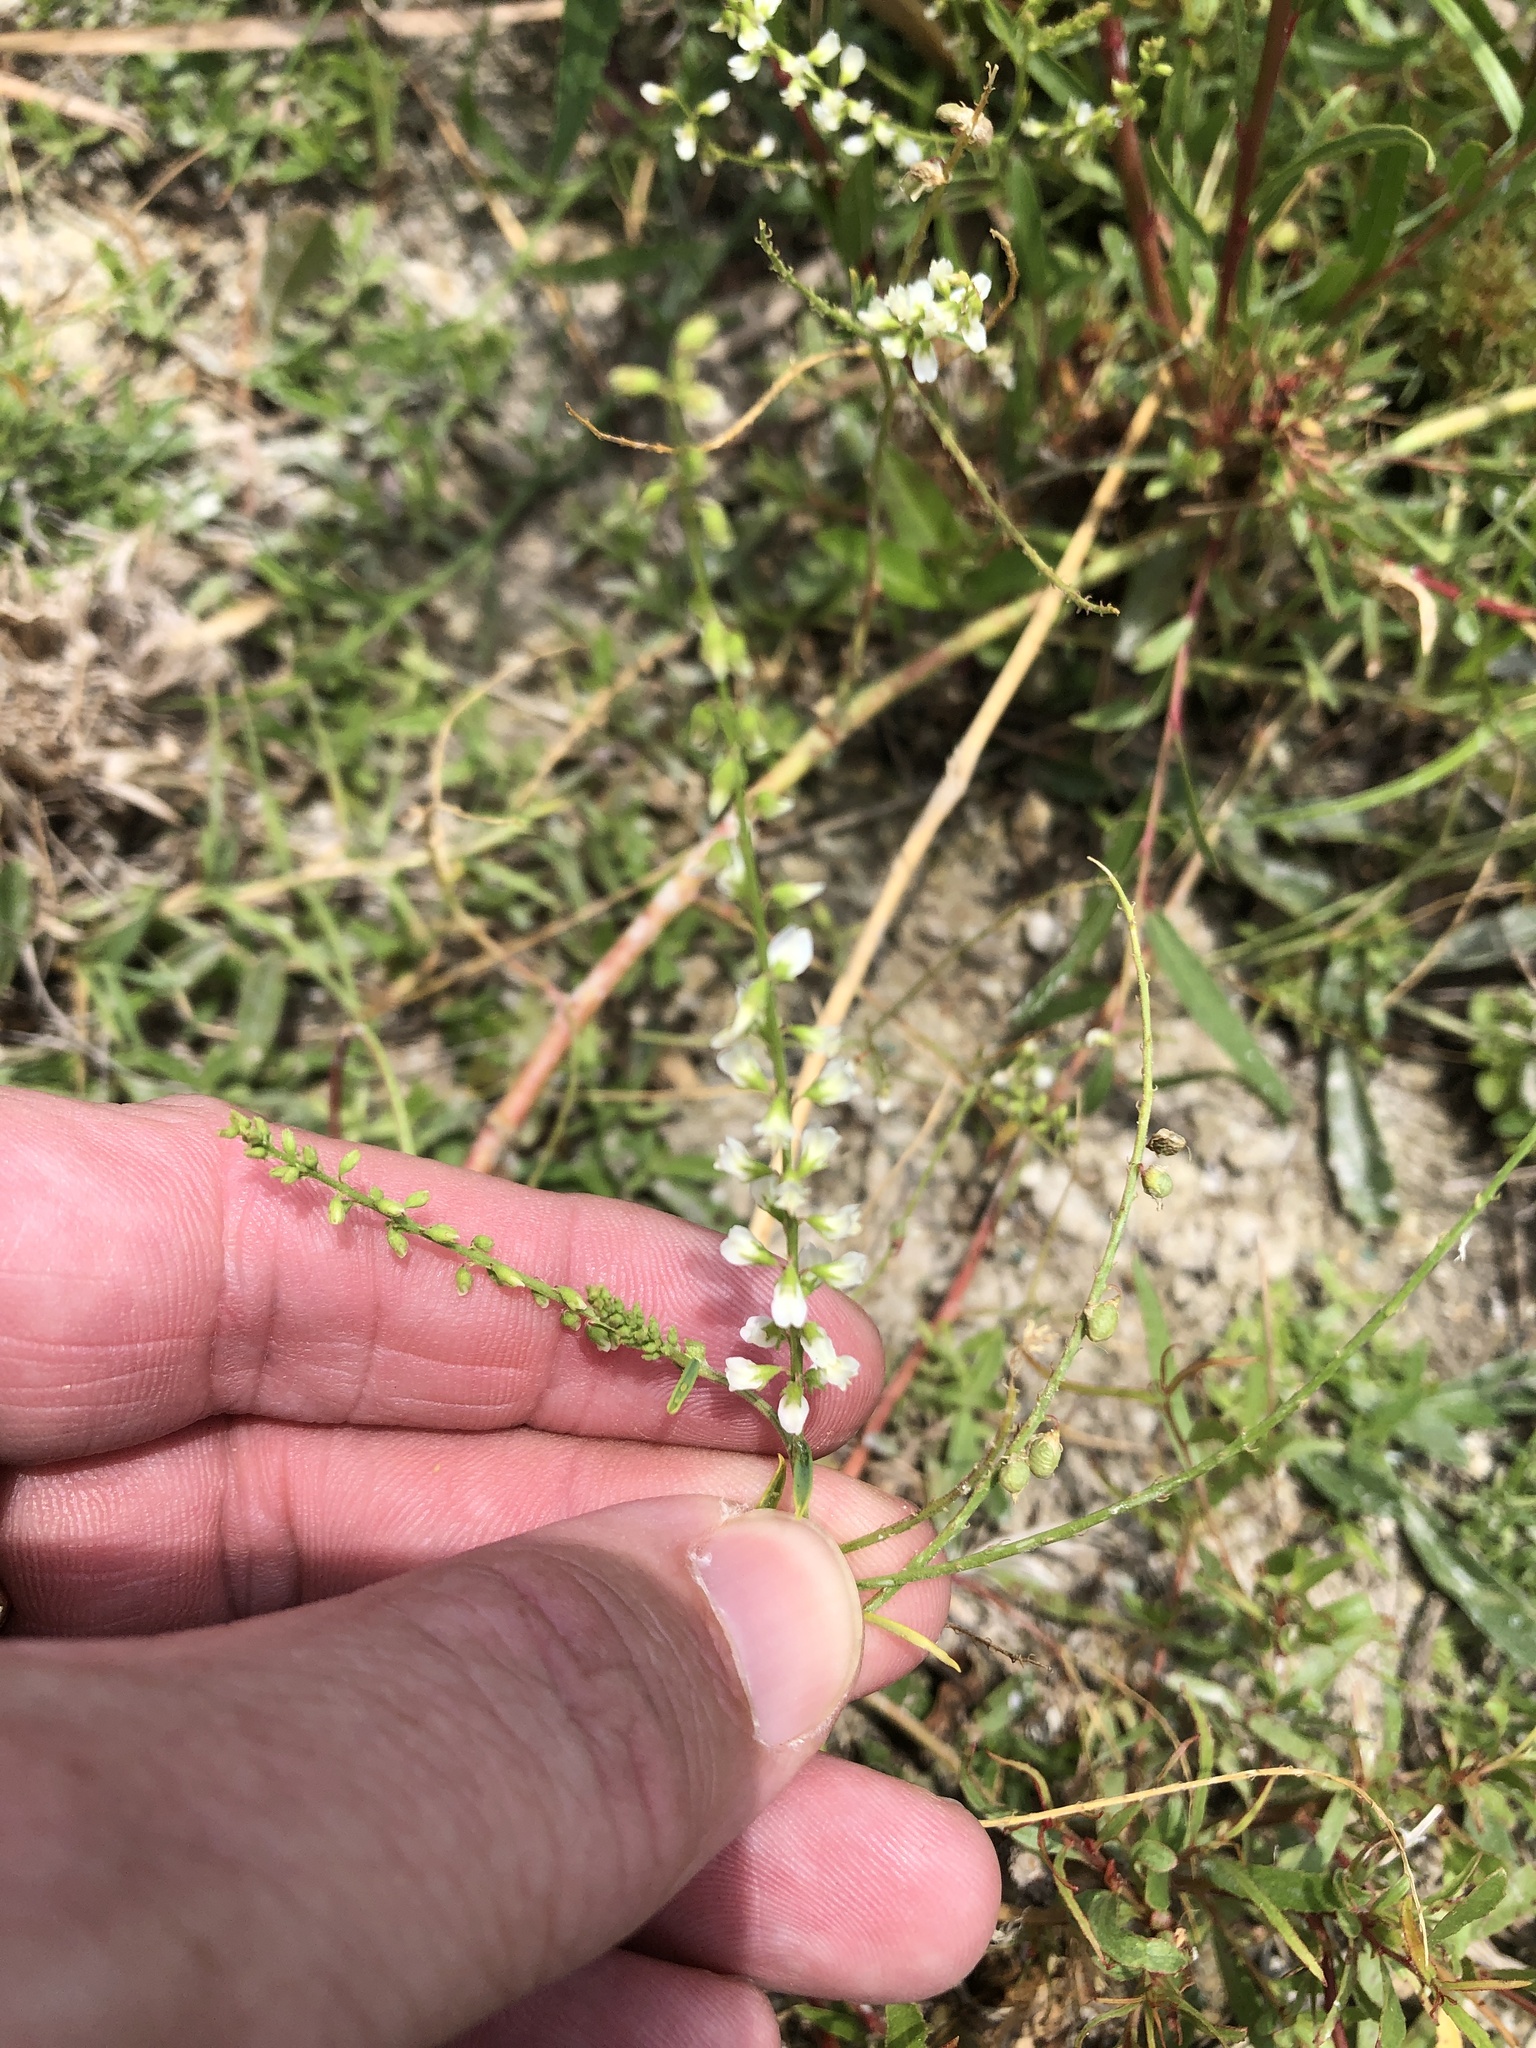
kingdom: Plantae
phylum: Tracheophyta
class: Magnoliopsida
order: Fabales
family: Fabaceae
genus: Melilotus
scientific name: Melilotus albus
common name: White melilot
